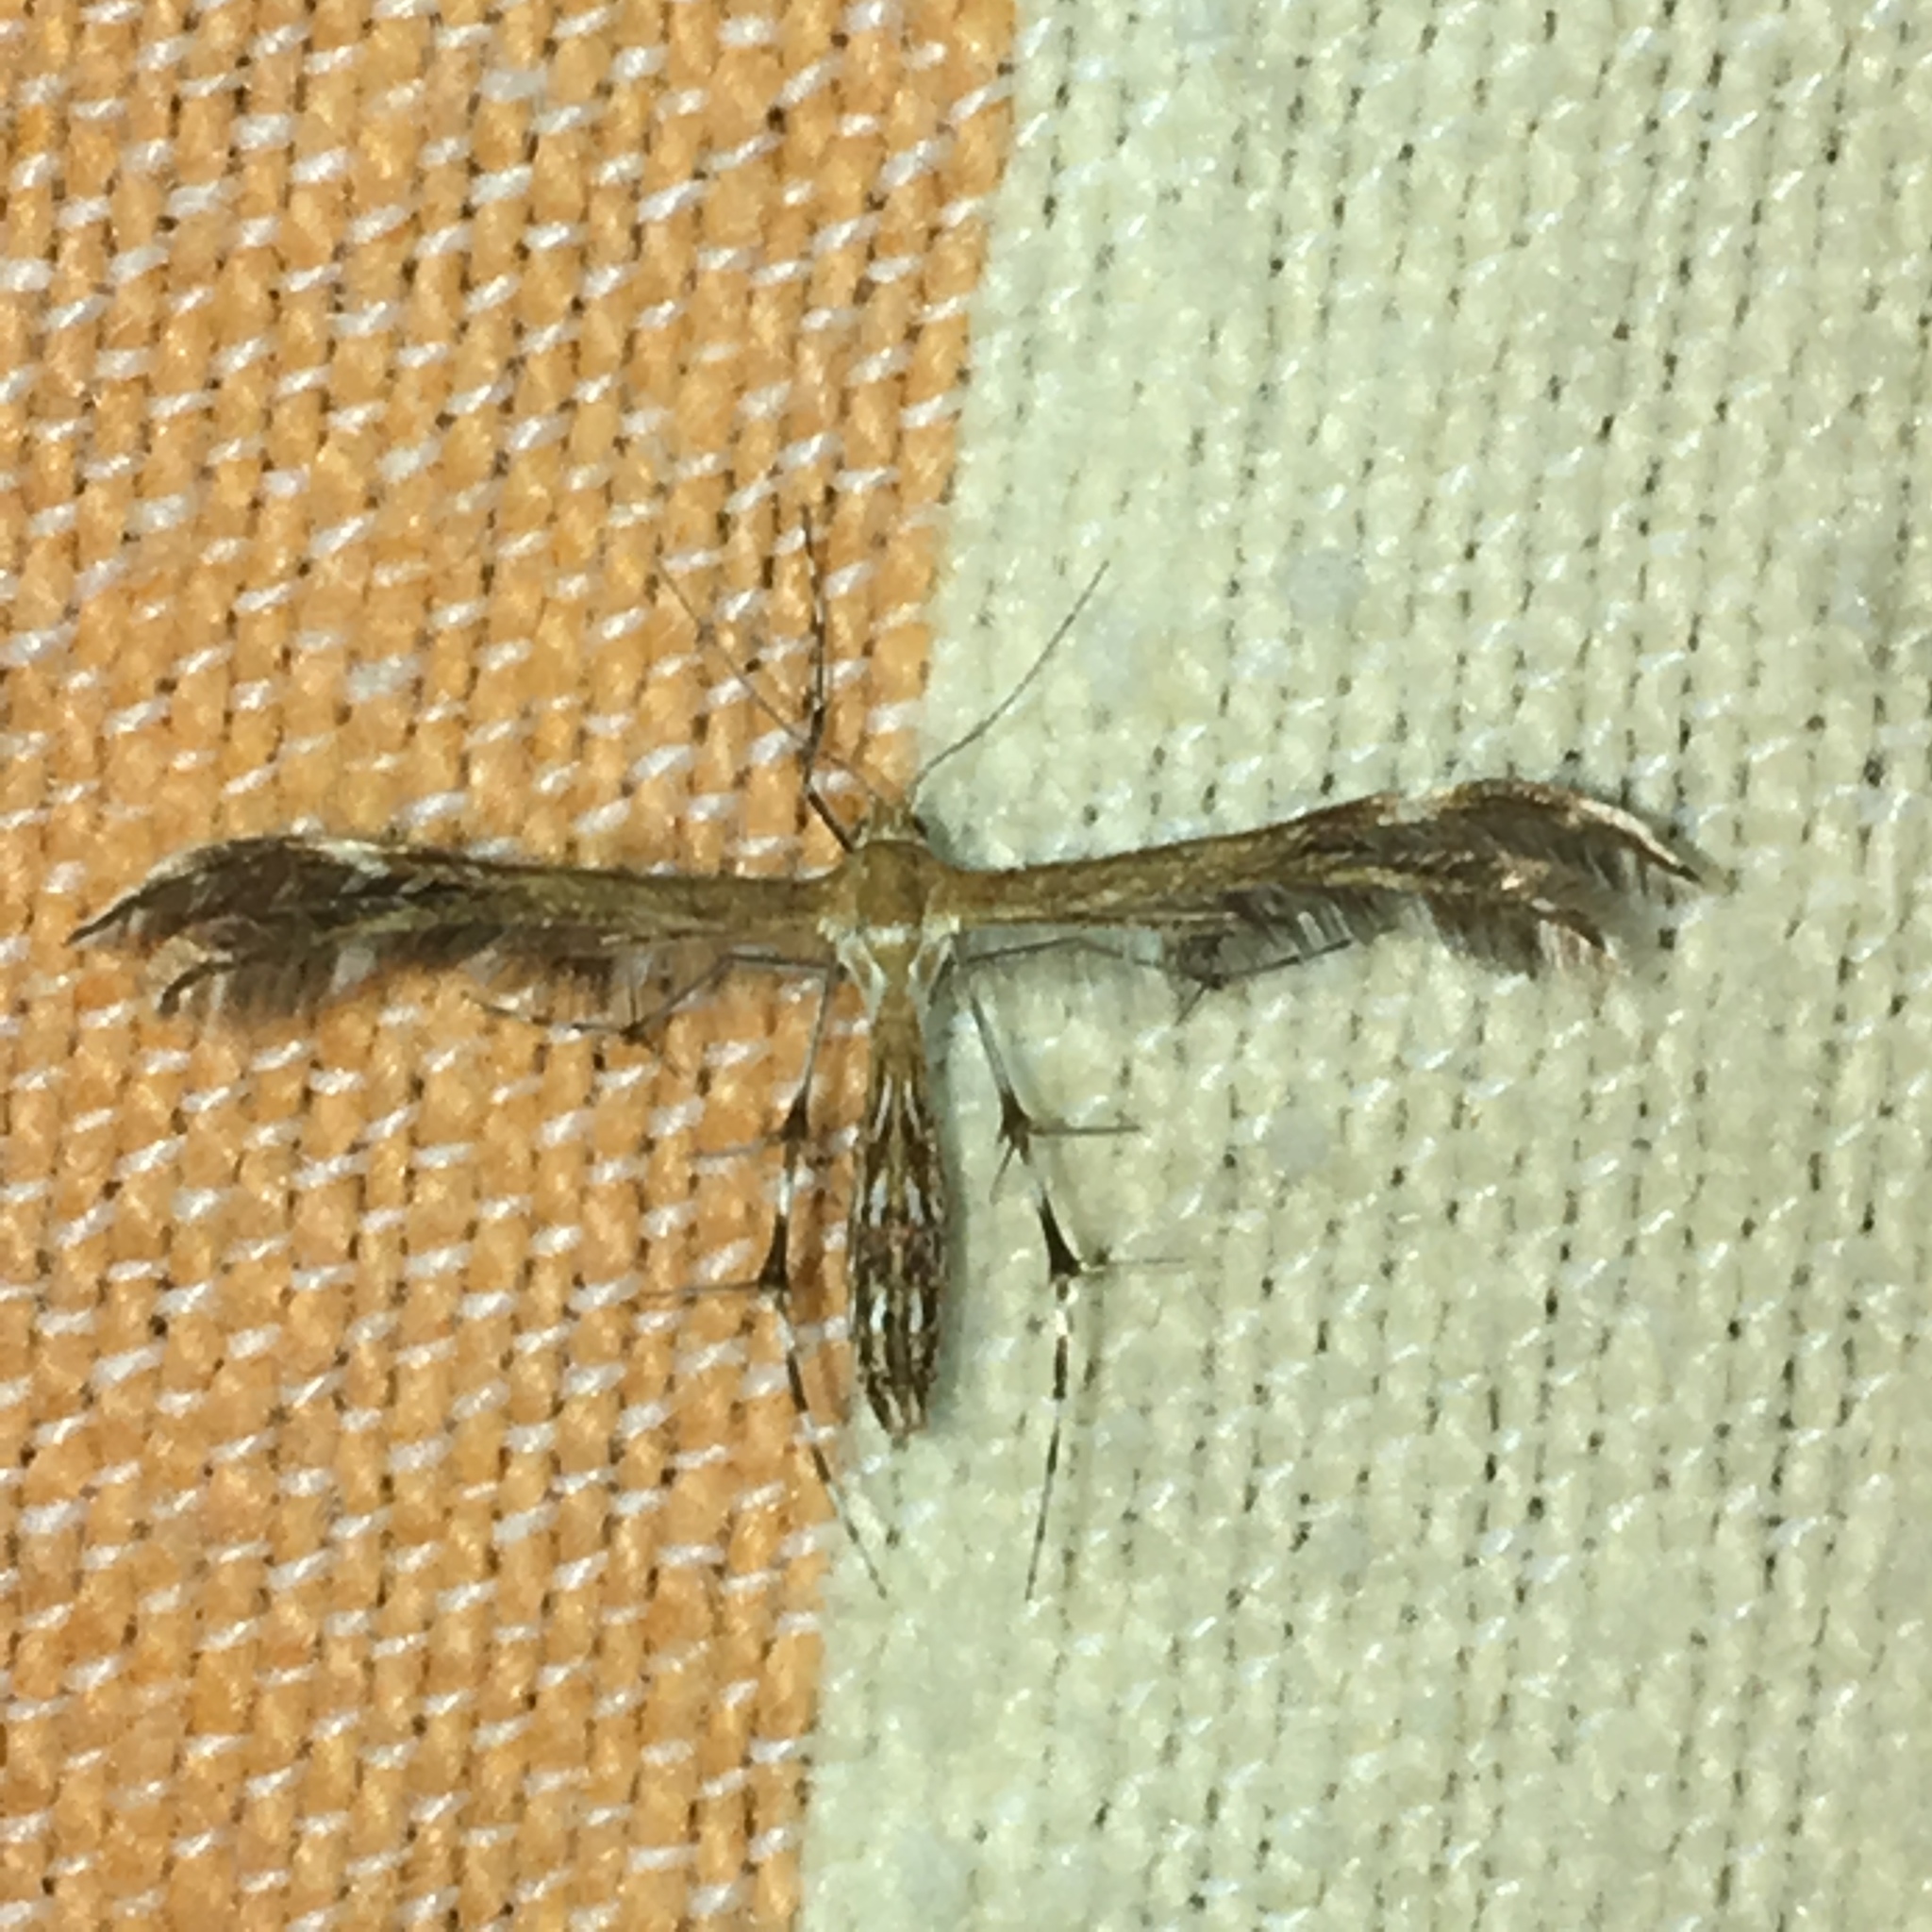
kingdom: Animalia
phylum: Arthropoda
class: Insecta
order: Lepidoptera
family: Pterophoridae
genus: Dejongia
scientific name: Dejongia lobidactylus
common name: Lobed plume moth
